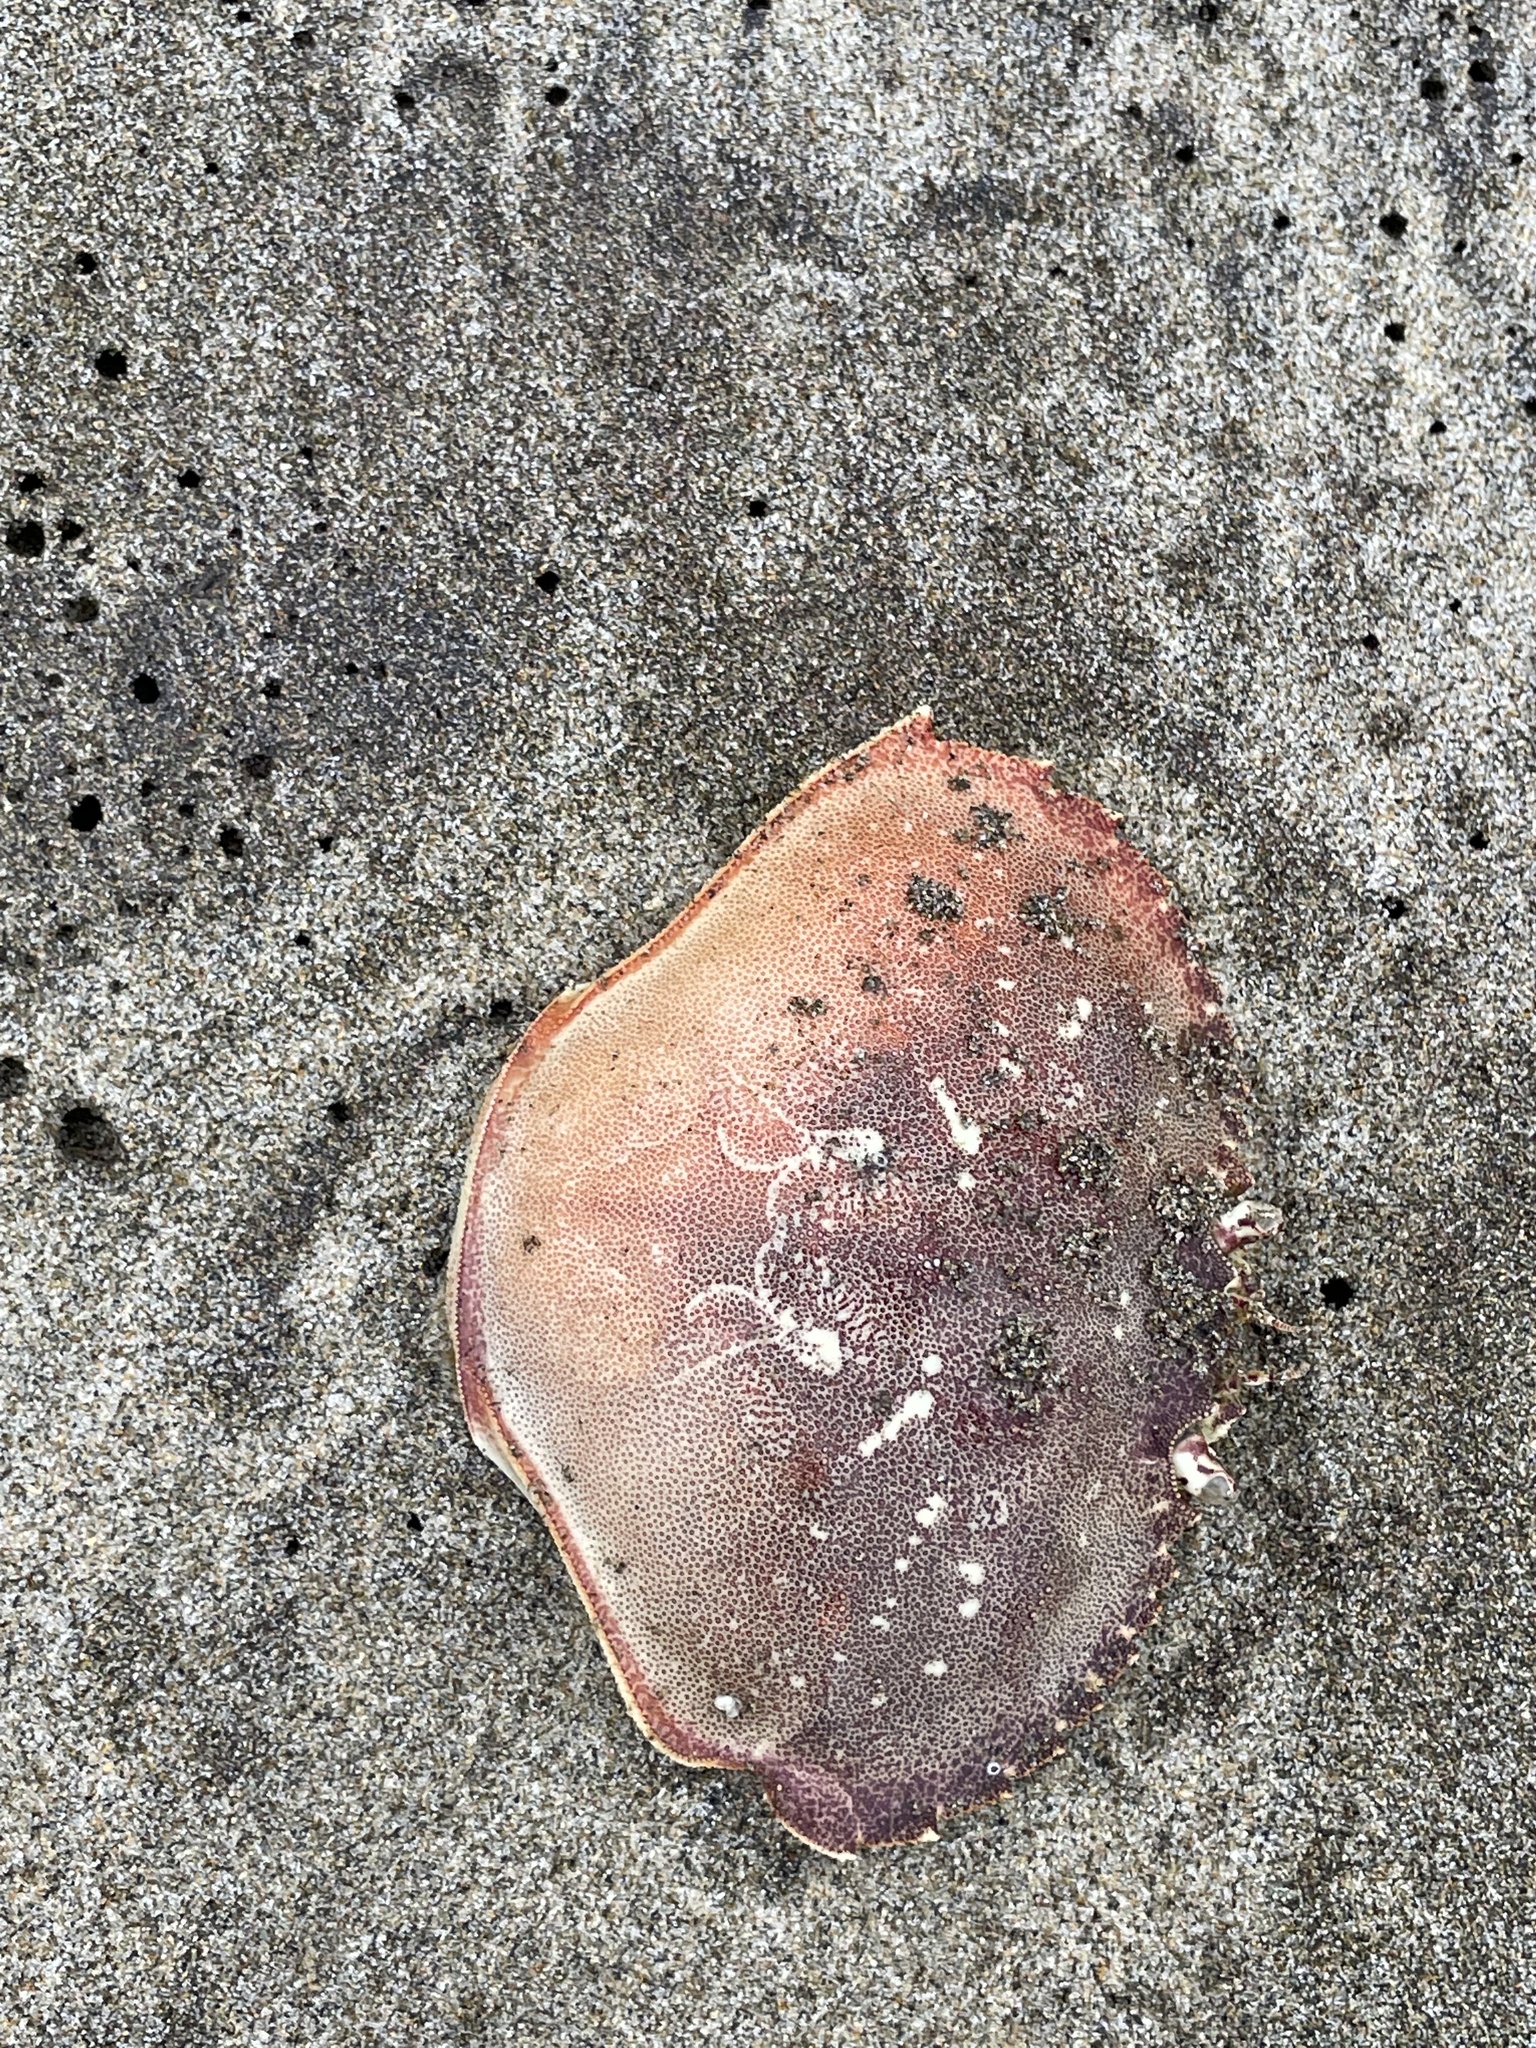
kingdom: Animalia
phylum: Arthropoda
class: Malacostraca
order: Decapoda
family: Cancridae
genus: Metacarcinus
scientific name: Metacarcinus magister
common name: Californian crab
